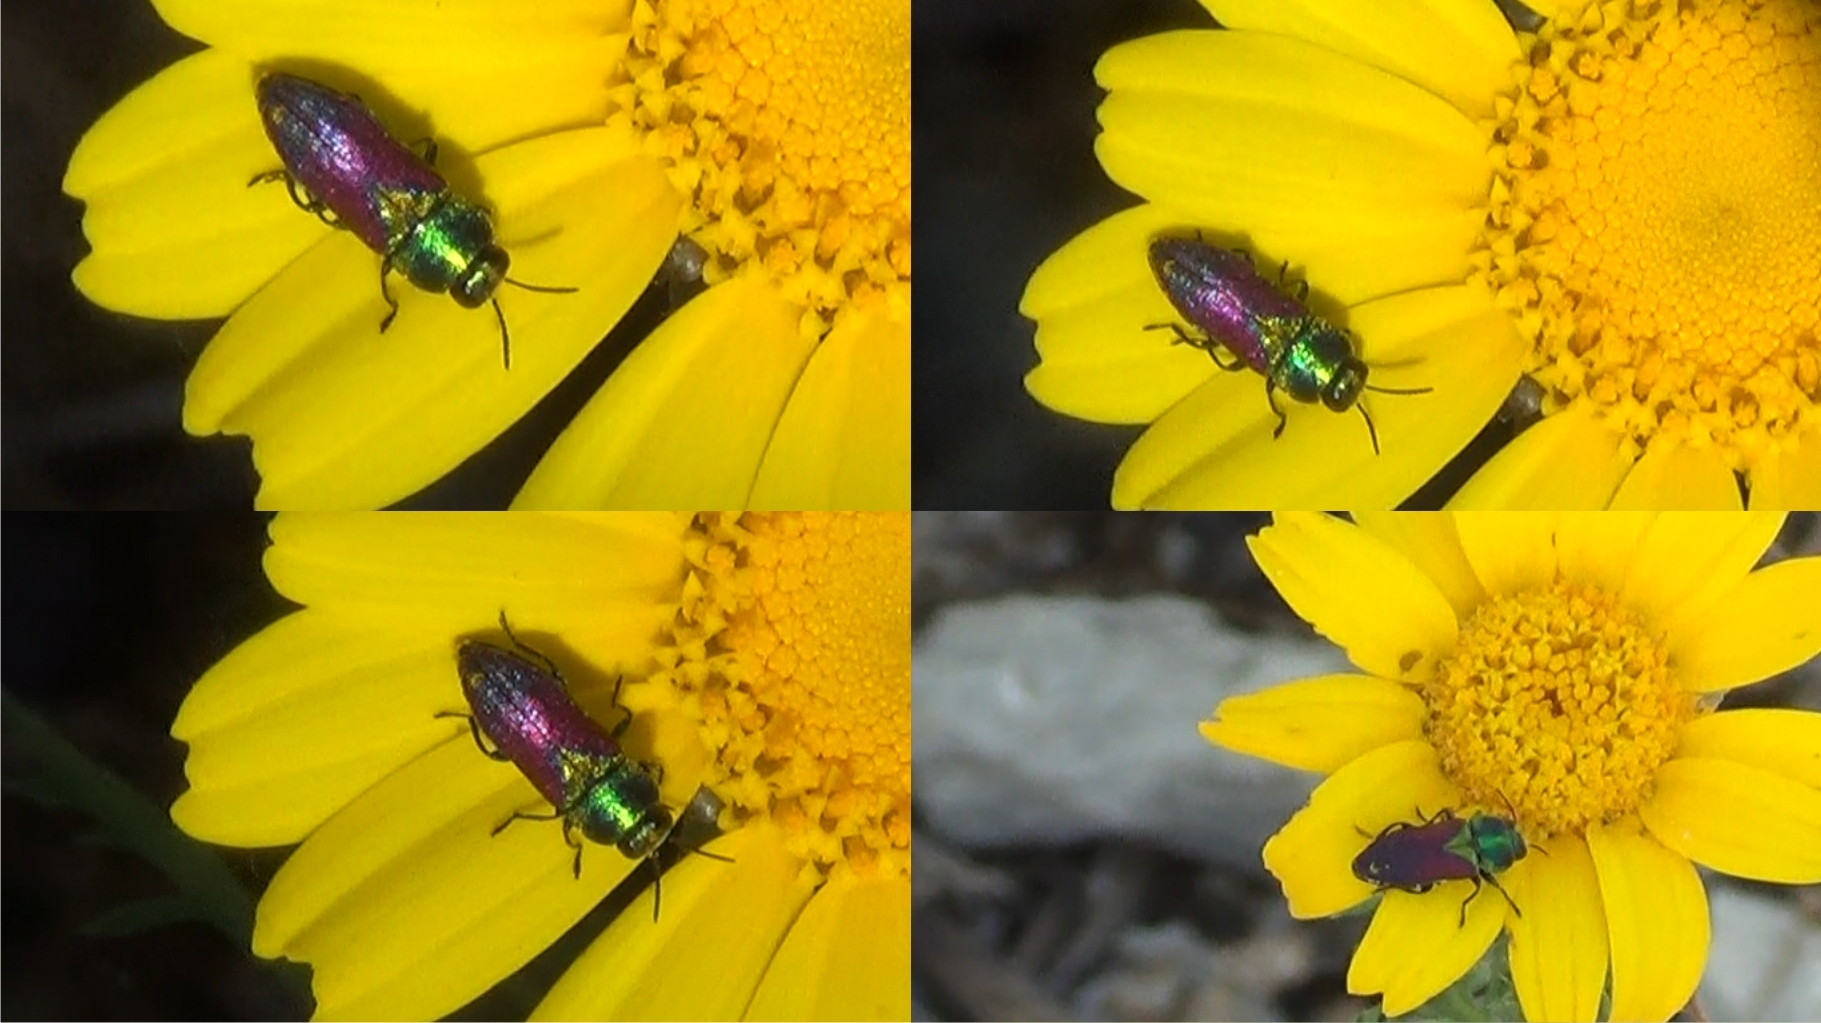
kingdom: Animalia
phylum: Arthropoda
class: Insecta
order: Coleoptera
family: Buprestidae
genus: Anthaxia
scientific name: Anthaxia salicis
